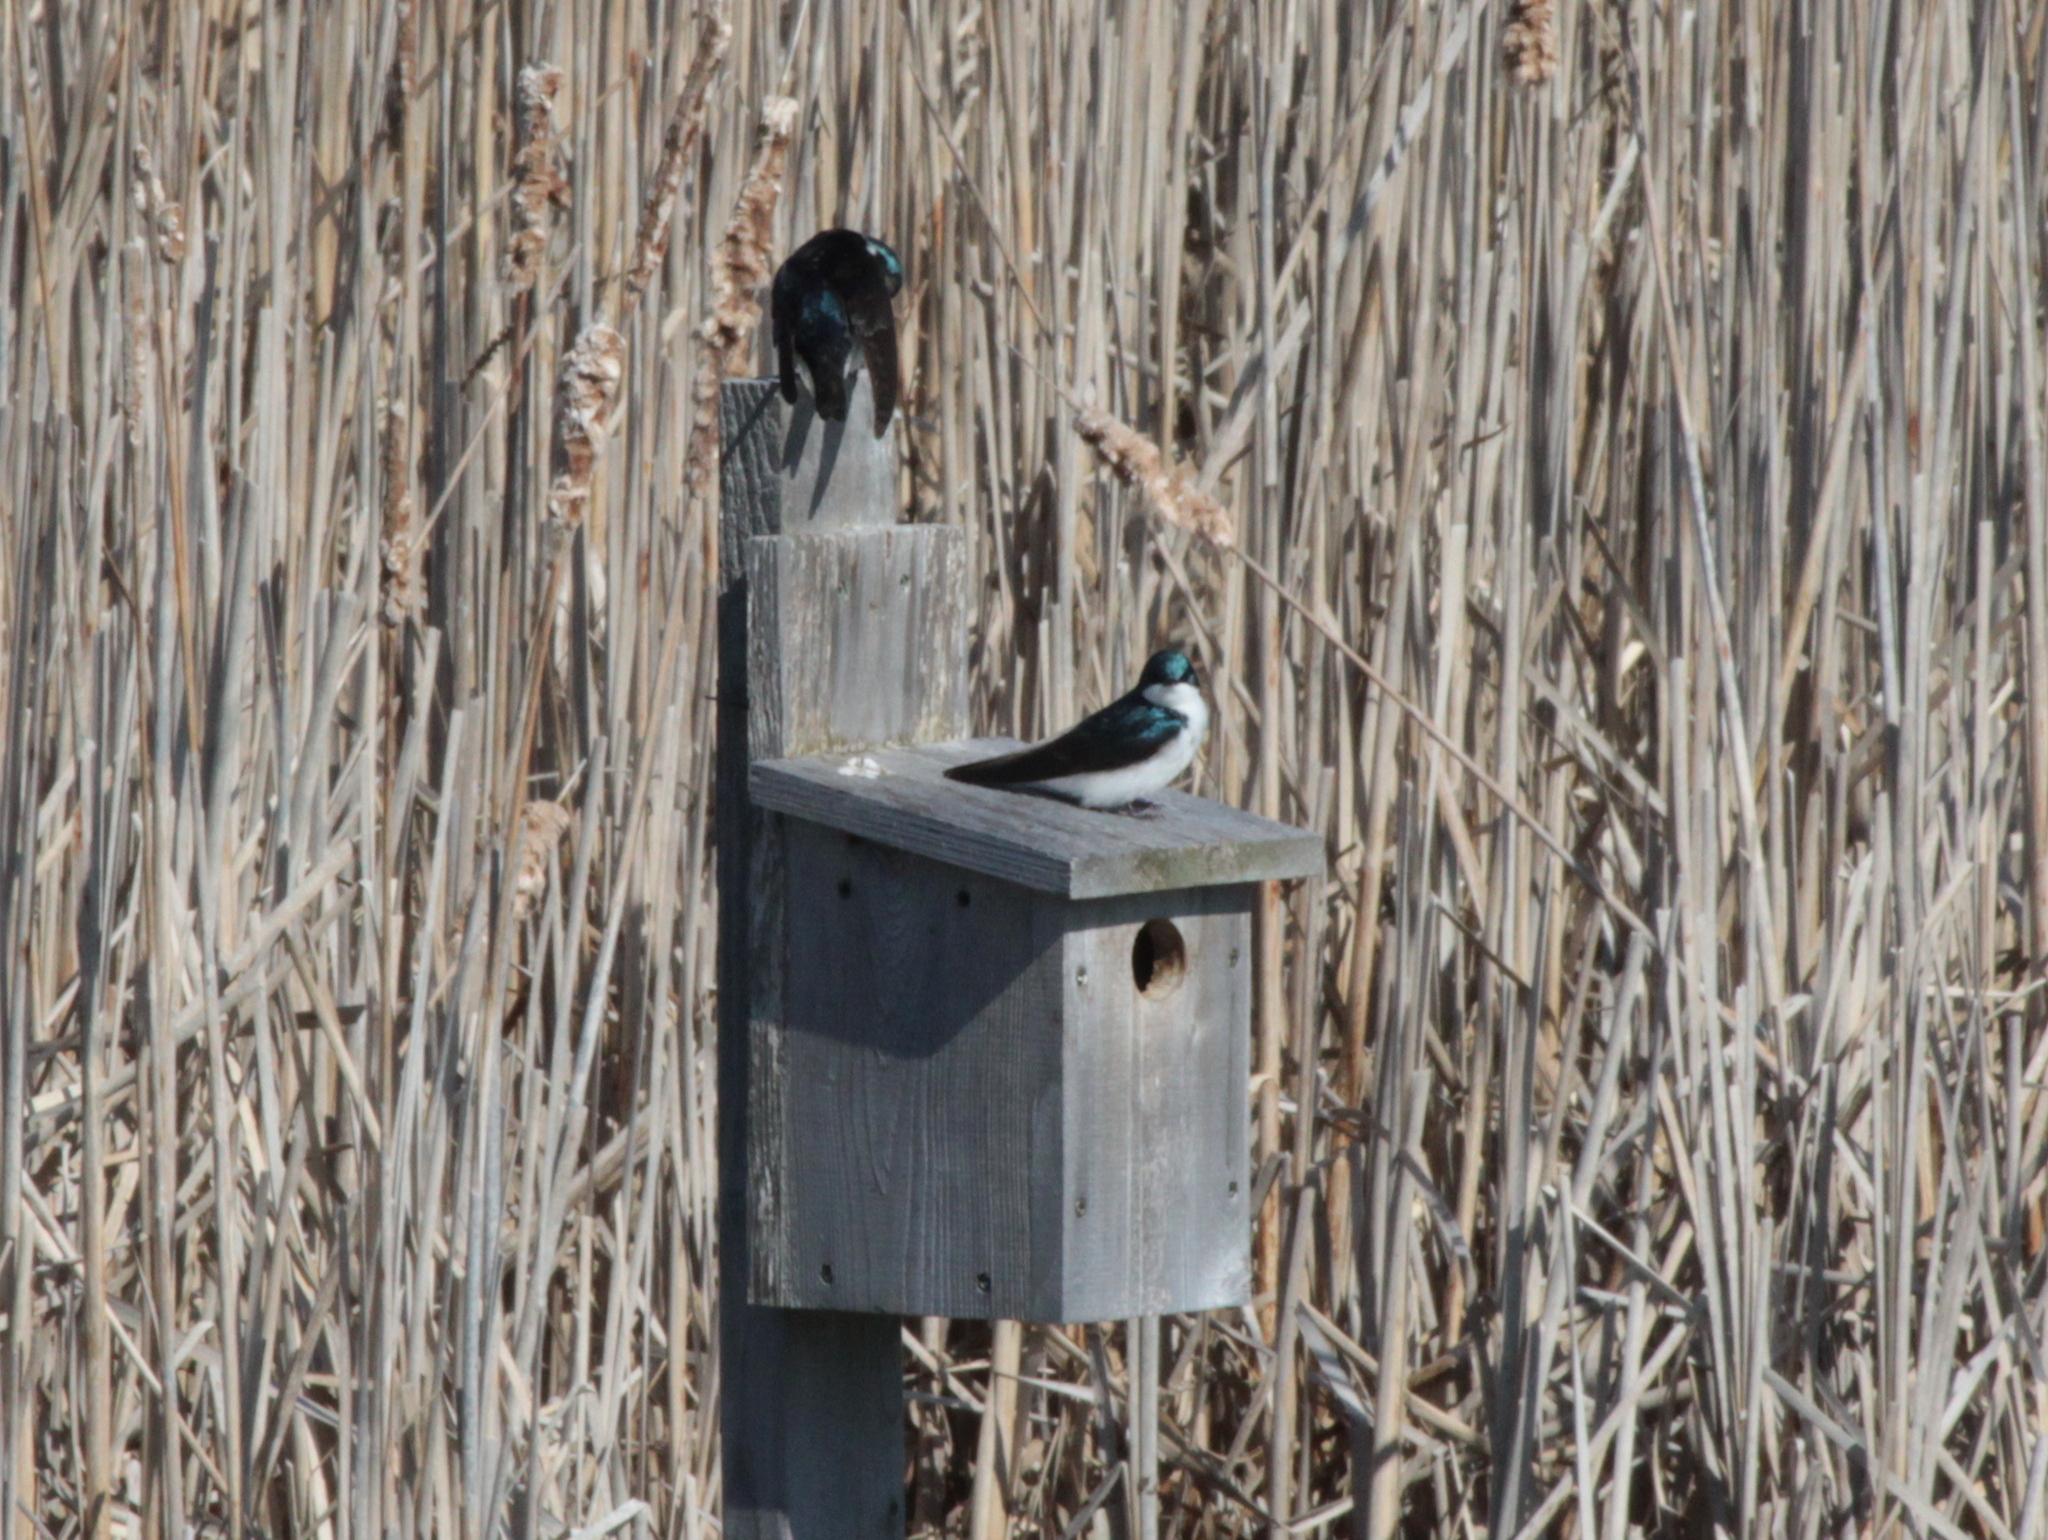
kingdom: Animalia
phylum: Chordata
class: Aves
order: Passeriformes
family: Hirundinidae
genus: Tachycineta
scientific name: Tachycineta bicolor
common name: Tree swallow
